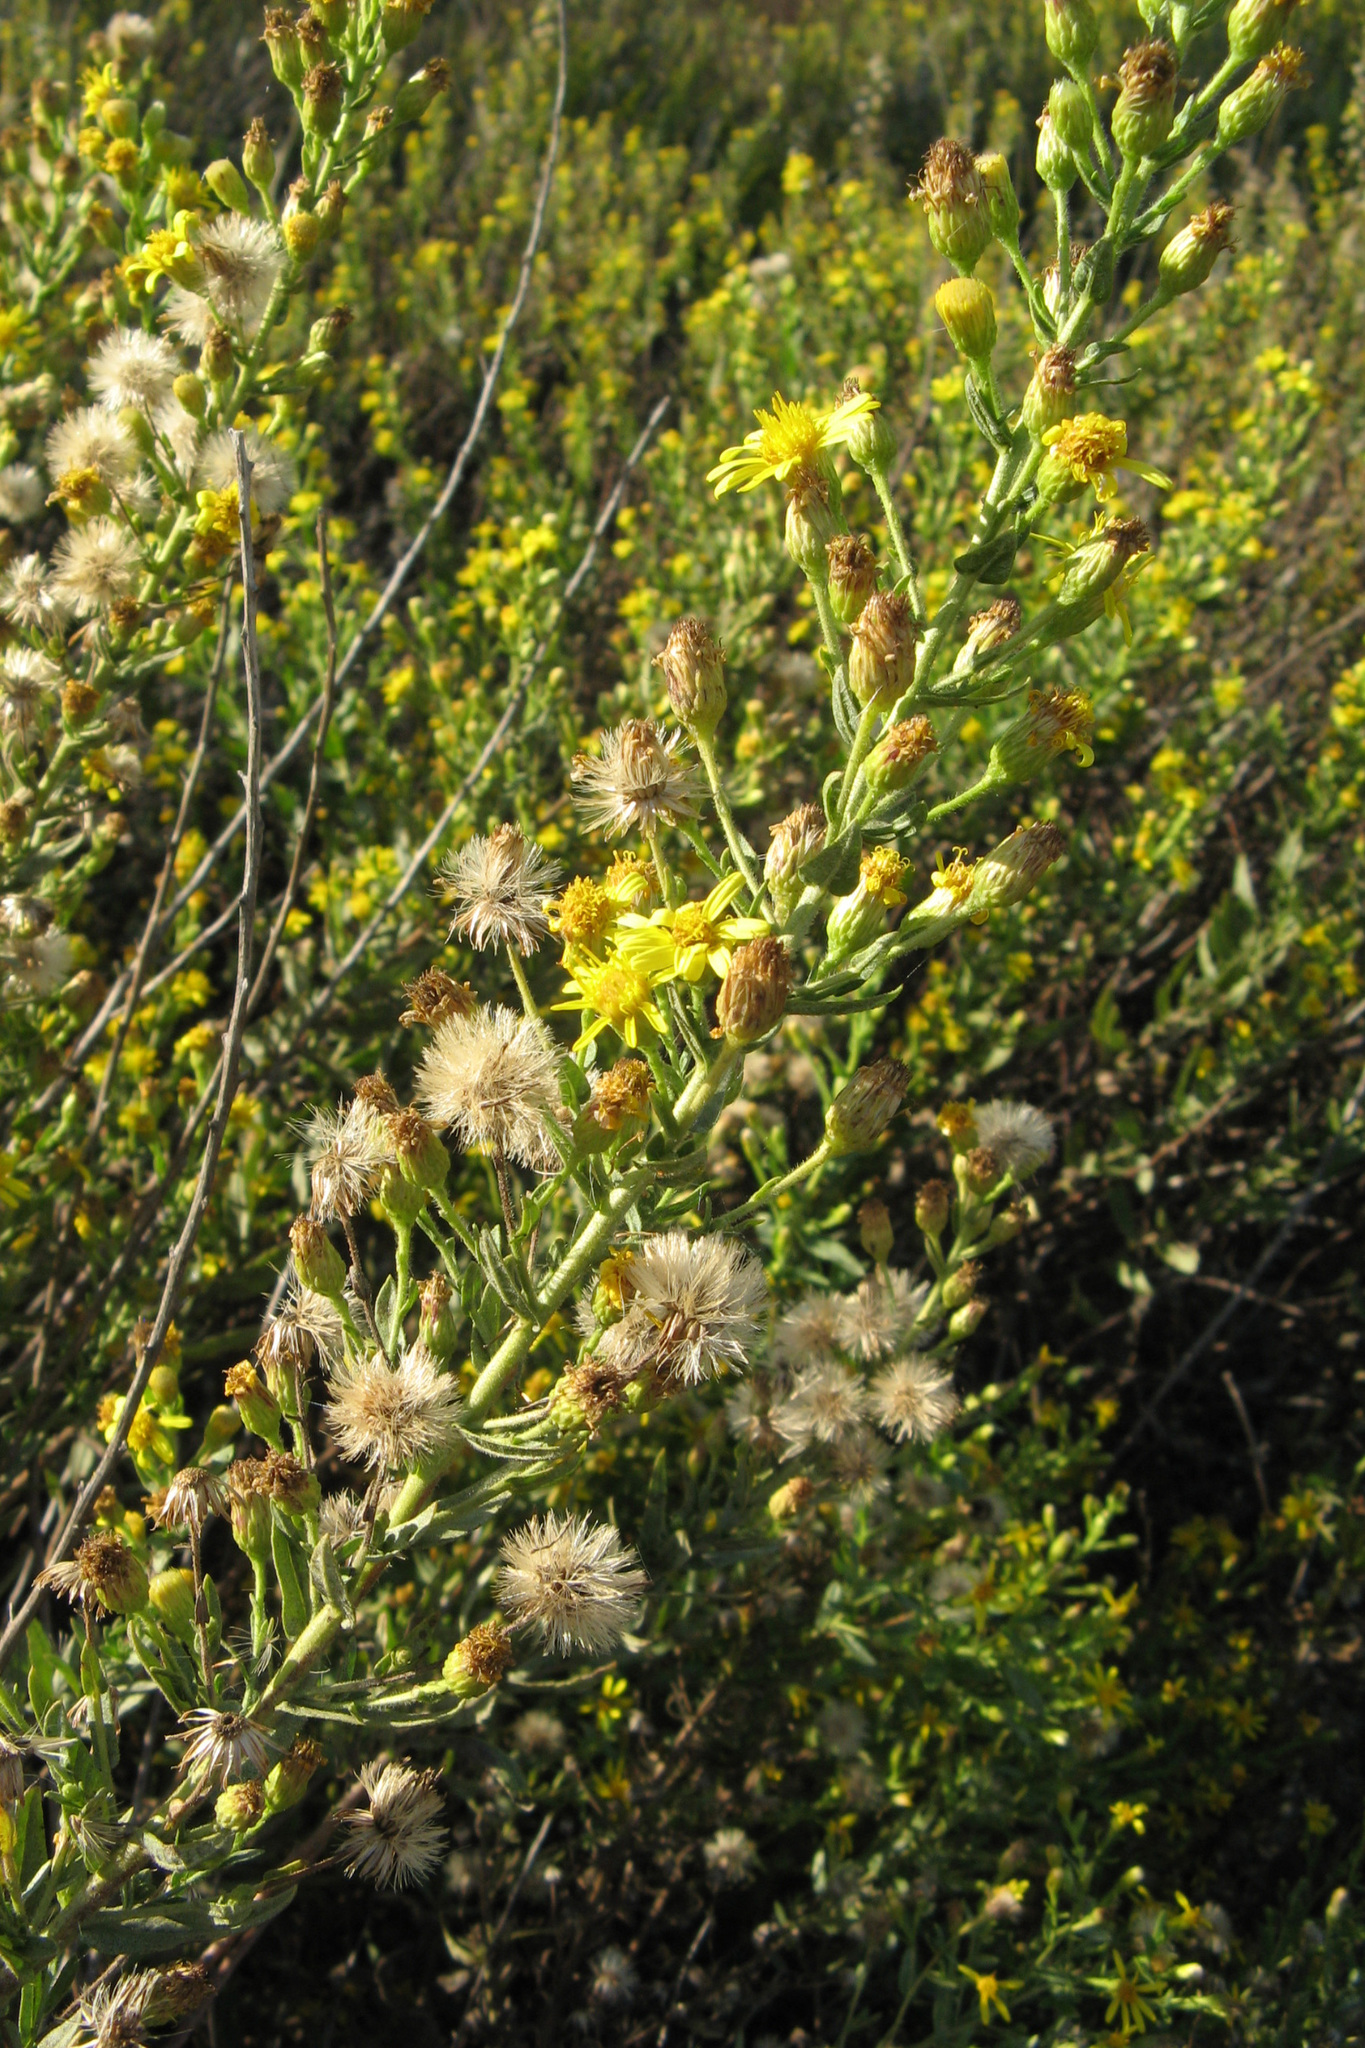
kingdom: Plantae
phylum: Tracheophyta
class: Magnoliopsida
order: Asterales
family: Asteraceae
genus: Dittrichia
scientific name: Dittrichia viscosa
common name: Woody fleabane
